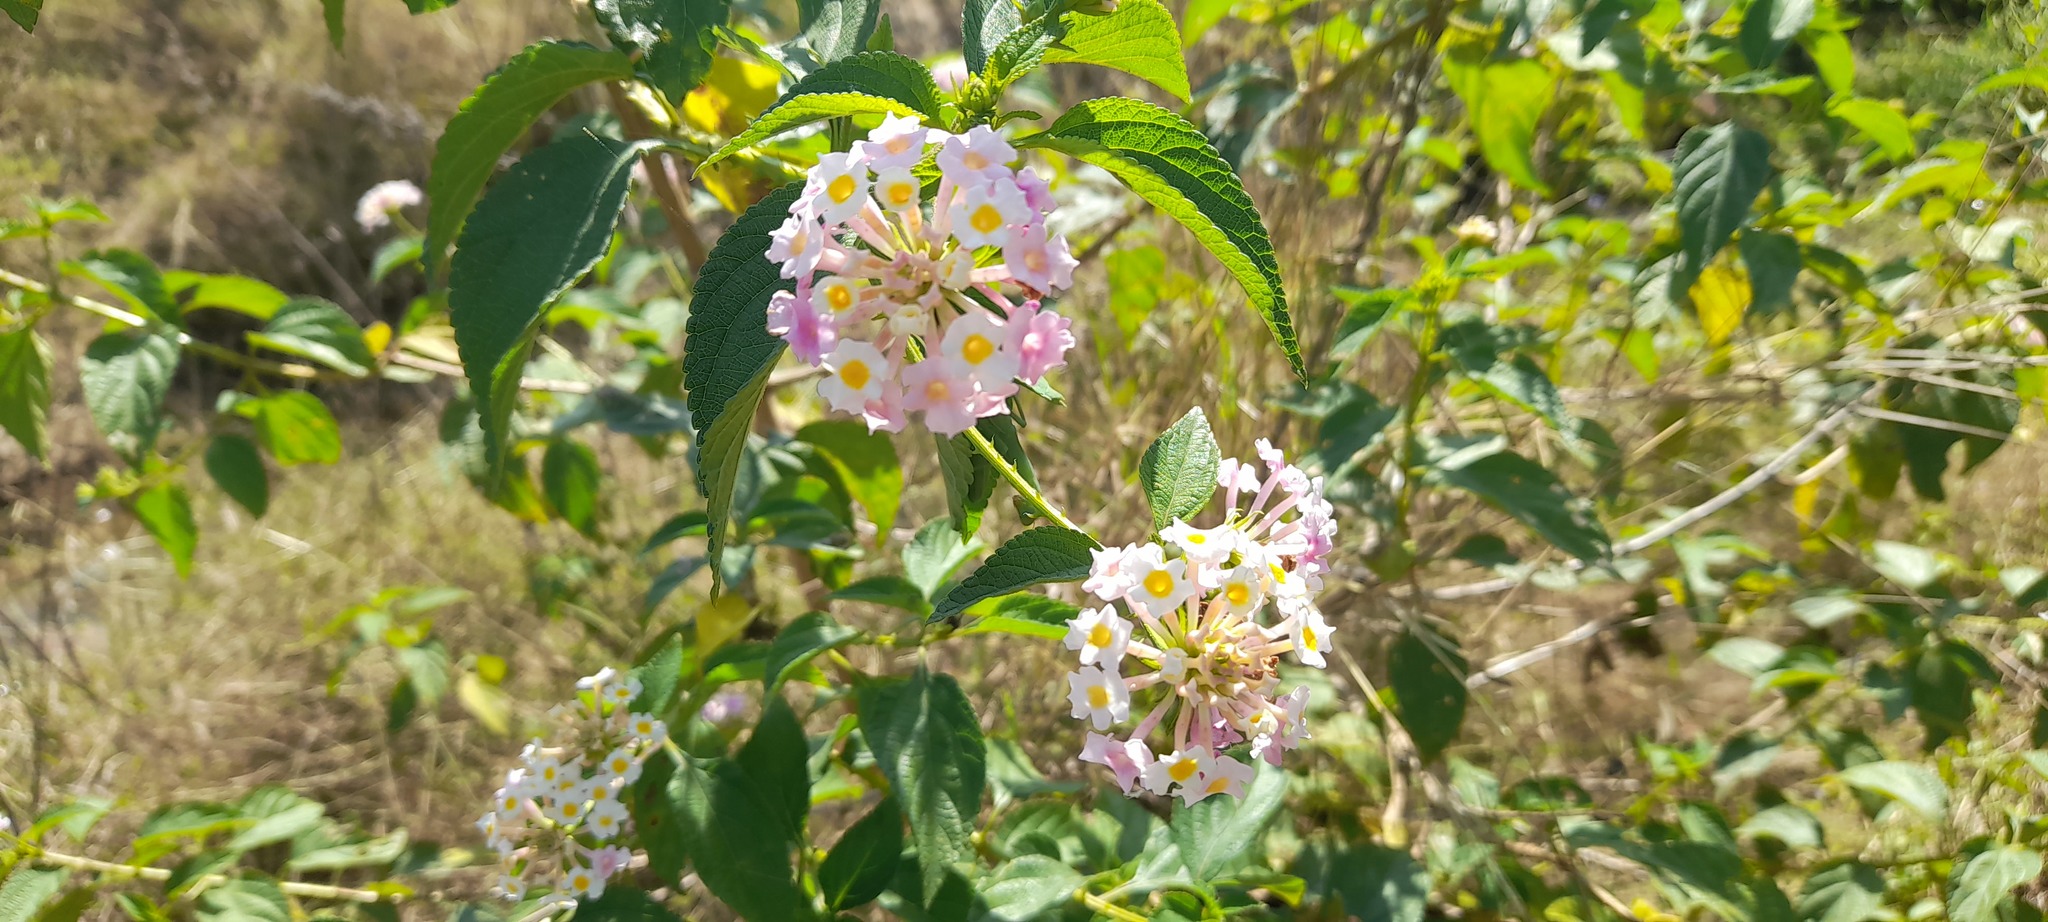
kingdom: Plantae
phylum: Tracheophyta
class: Magnoliopsida
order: Lamiales
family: Verbenaceae
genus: Lantana
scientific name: Lantana camara
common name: Lantana
